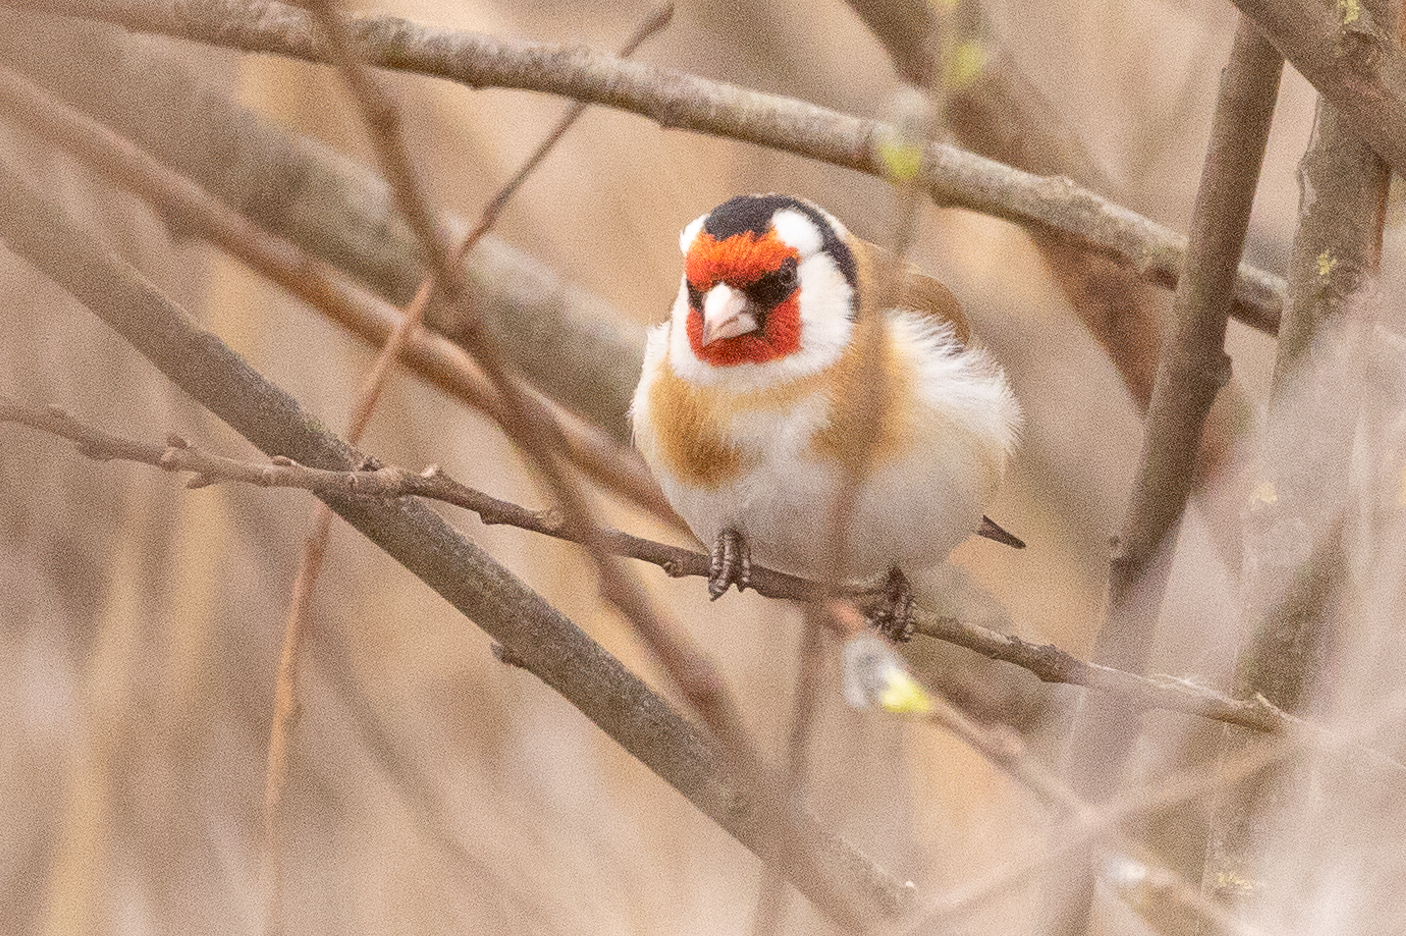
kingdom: Animalia
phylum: Chordata
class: Aves
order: Passeriformes
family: Fringillidae
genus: Carduelis
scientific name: Carduelis carduelis
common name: European goldfinch
